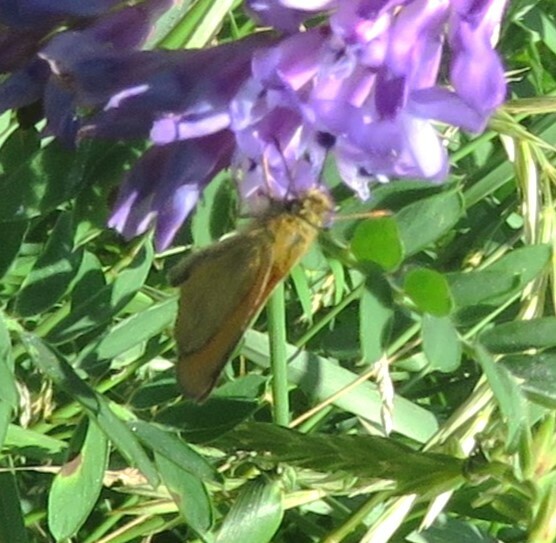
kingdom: Animalia
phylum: Arthropoda
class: Insecta
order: Lepidoptera
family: Hesperiidae
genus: Thymelicus
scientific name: Thymelicus lineola
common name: Essex skipper
